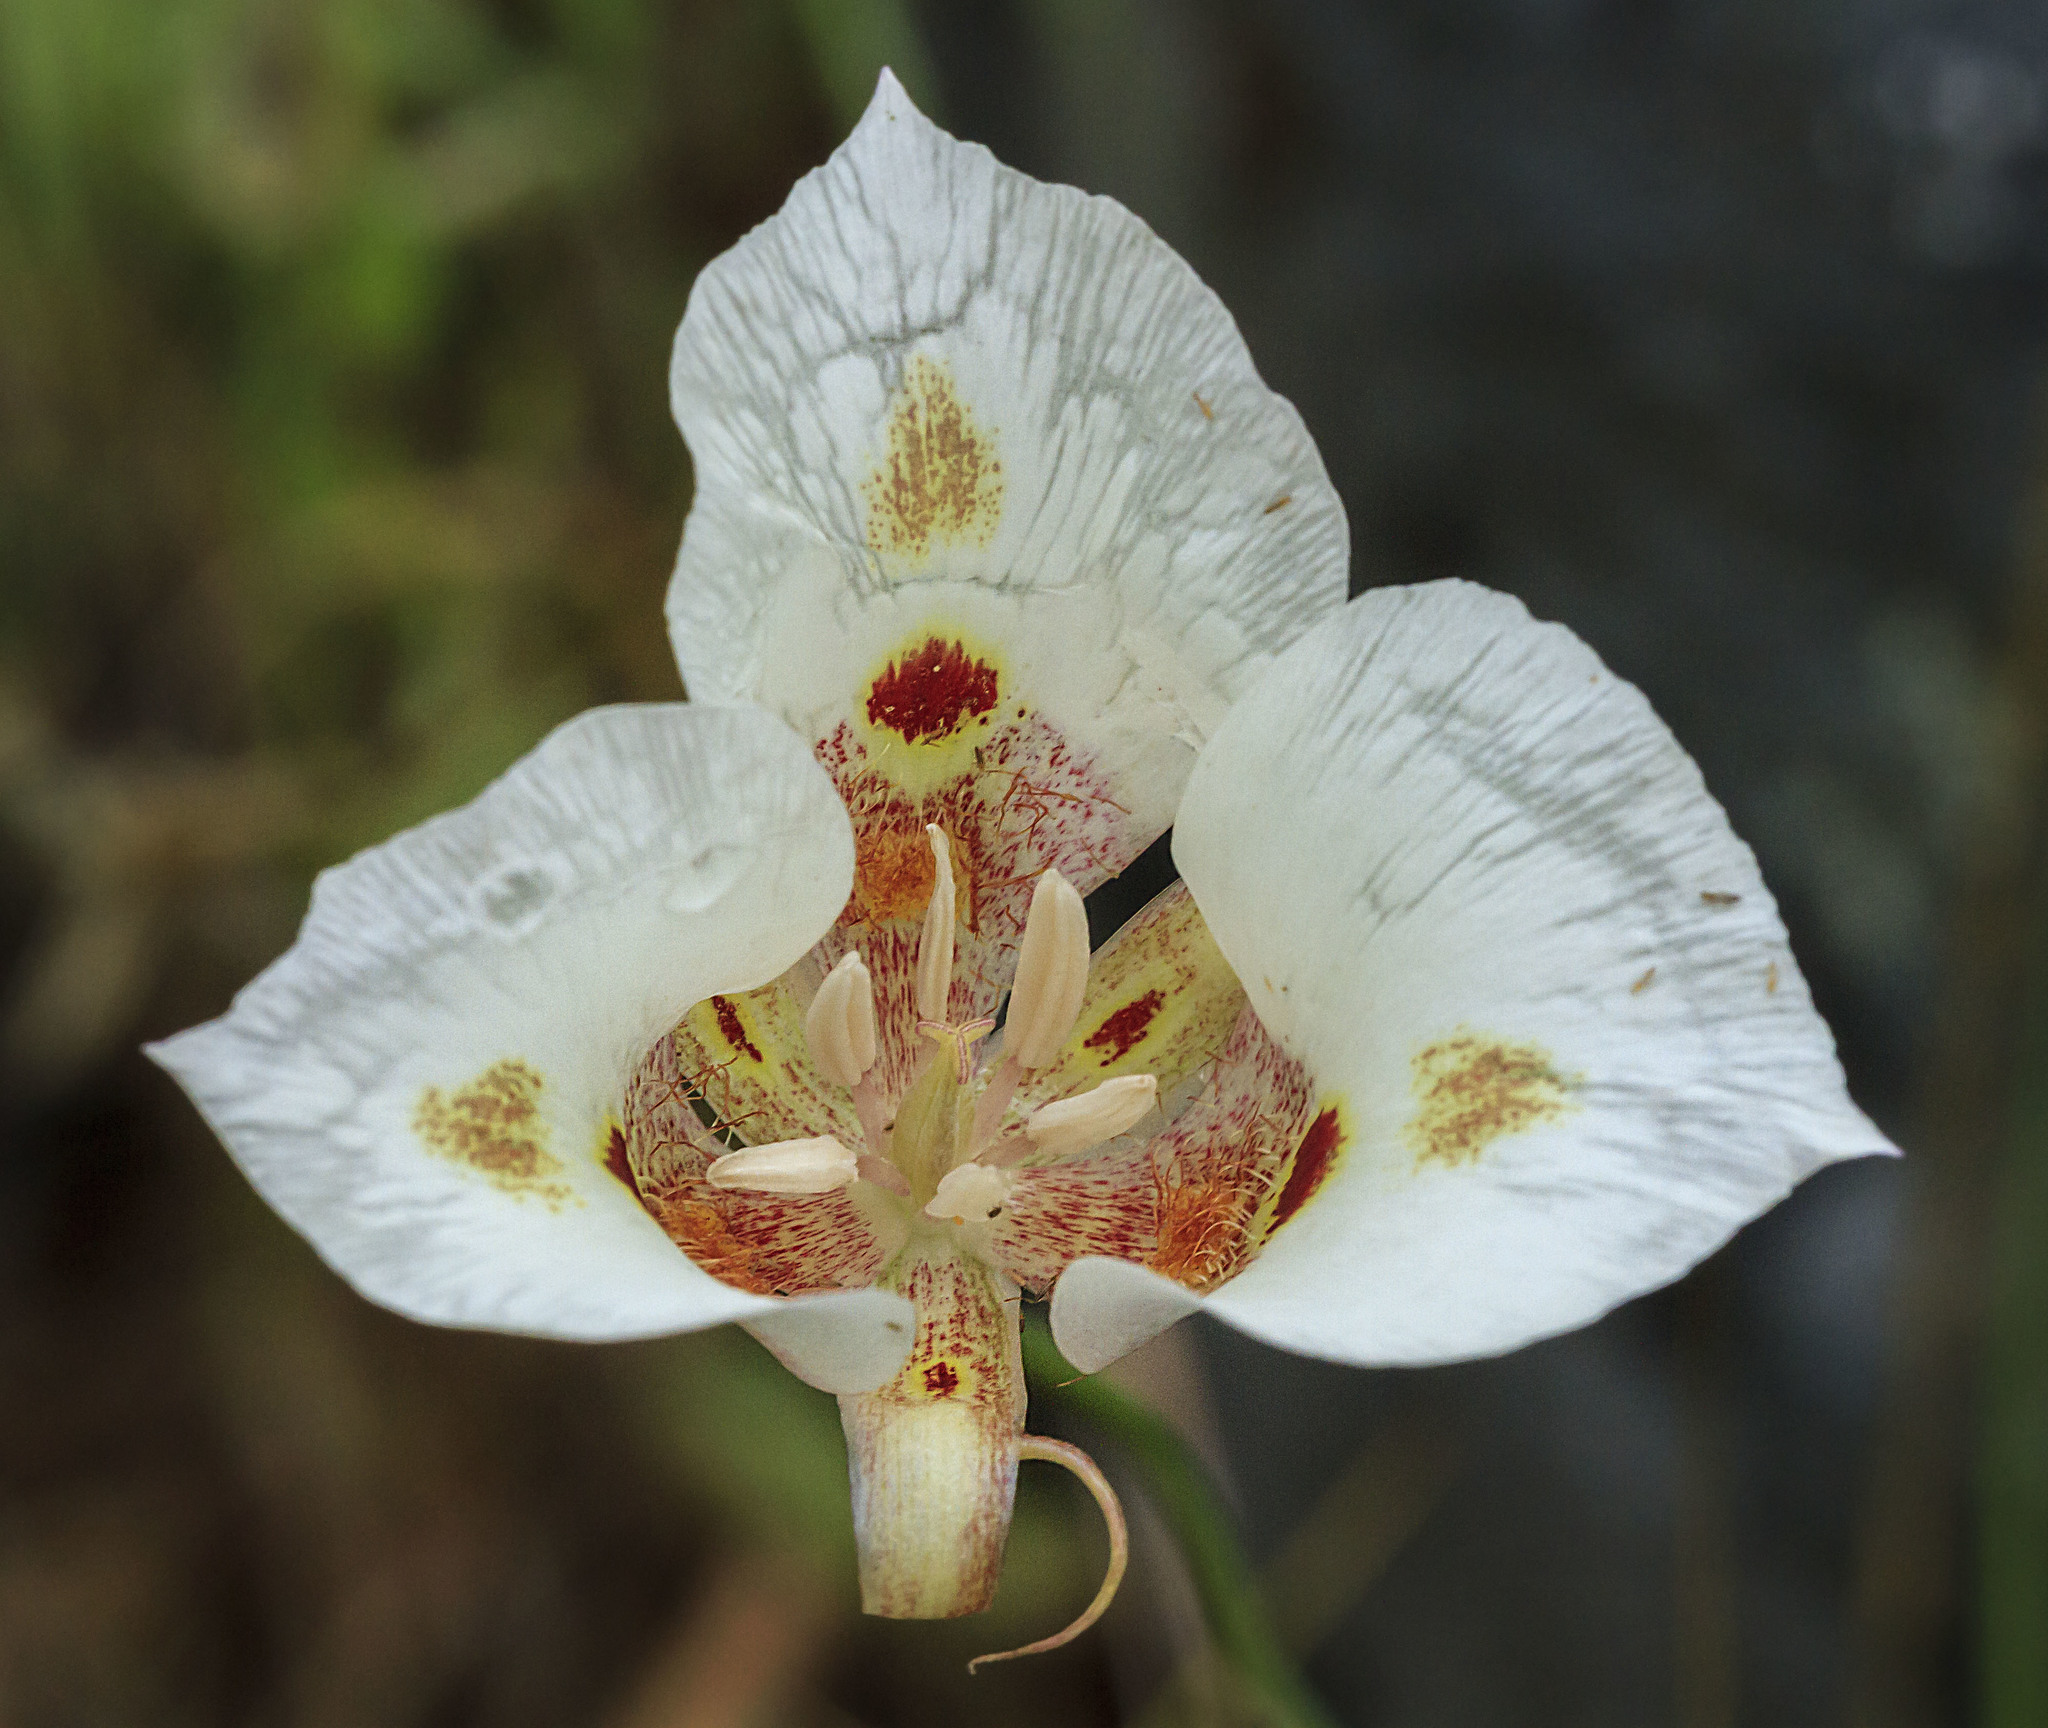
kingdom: Plantae
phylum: Tracheophyta
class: Liliopsida
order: Liliales
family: Liliaceae
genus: Calochortus
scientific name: Calochortus venustus
